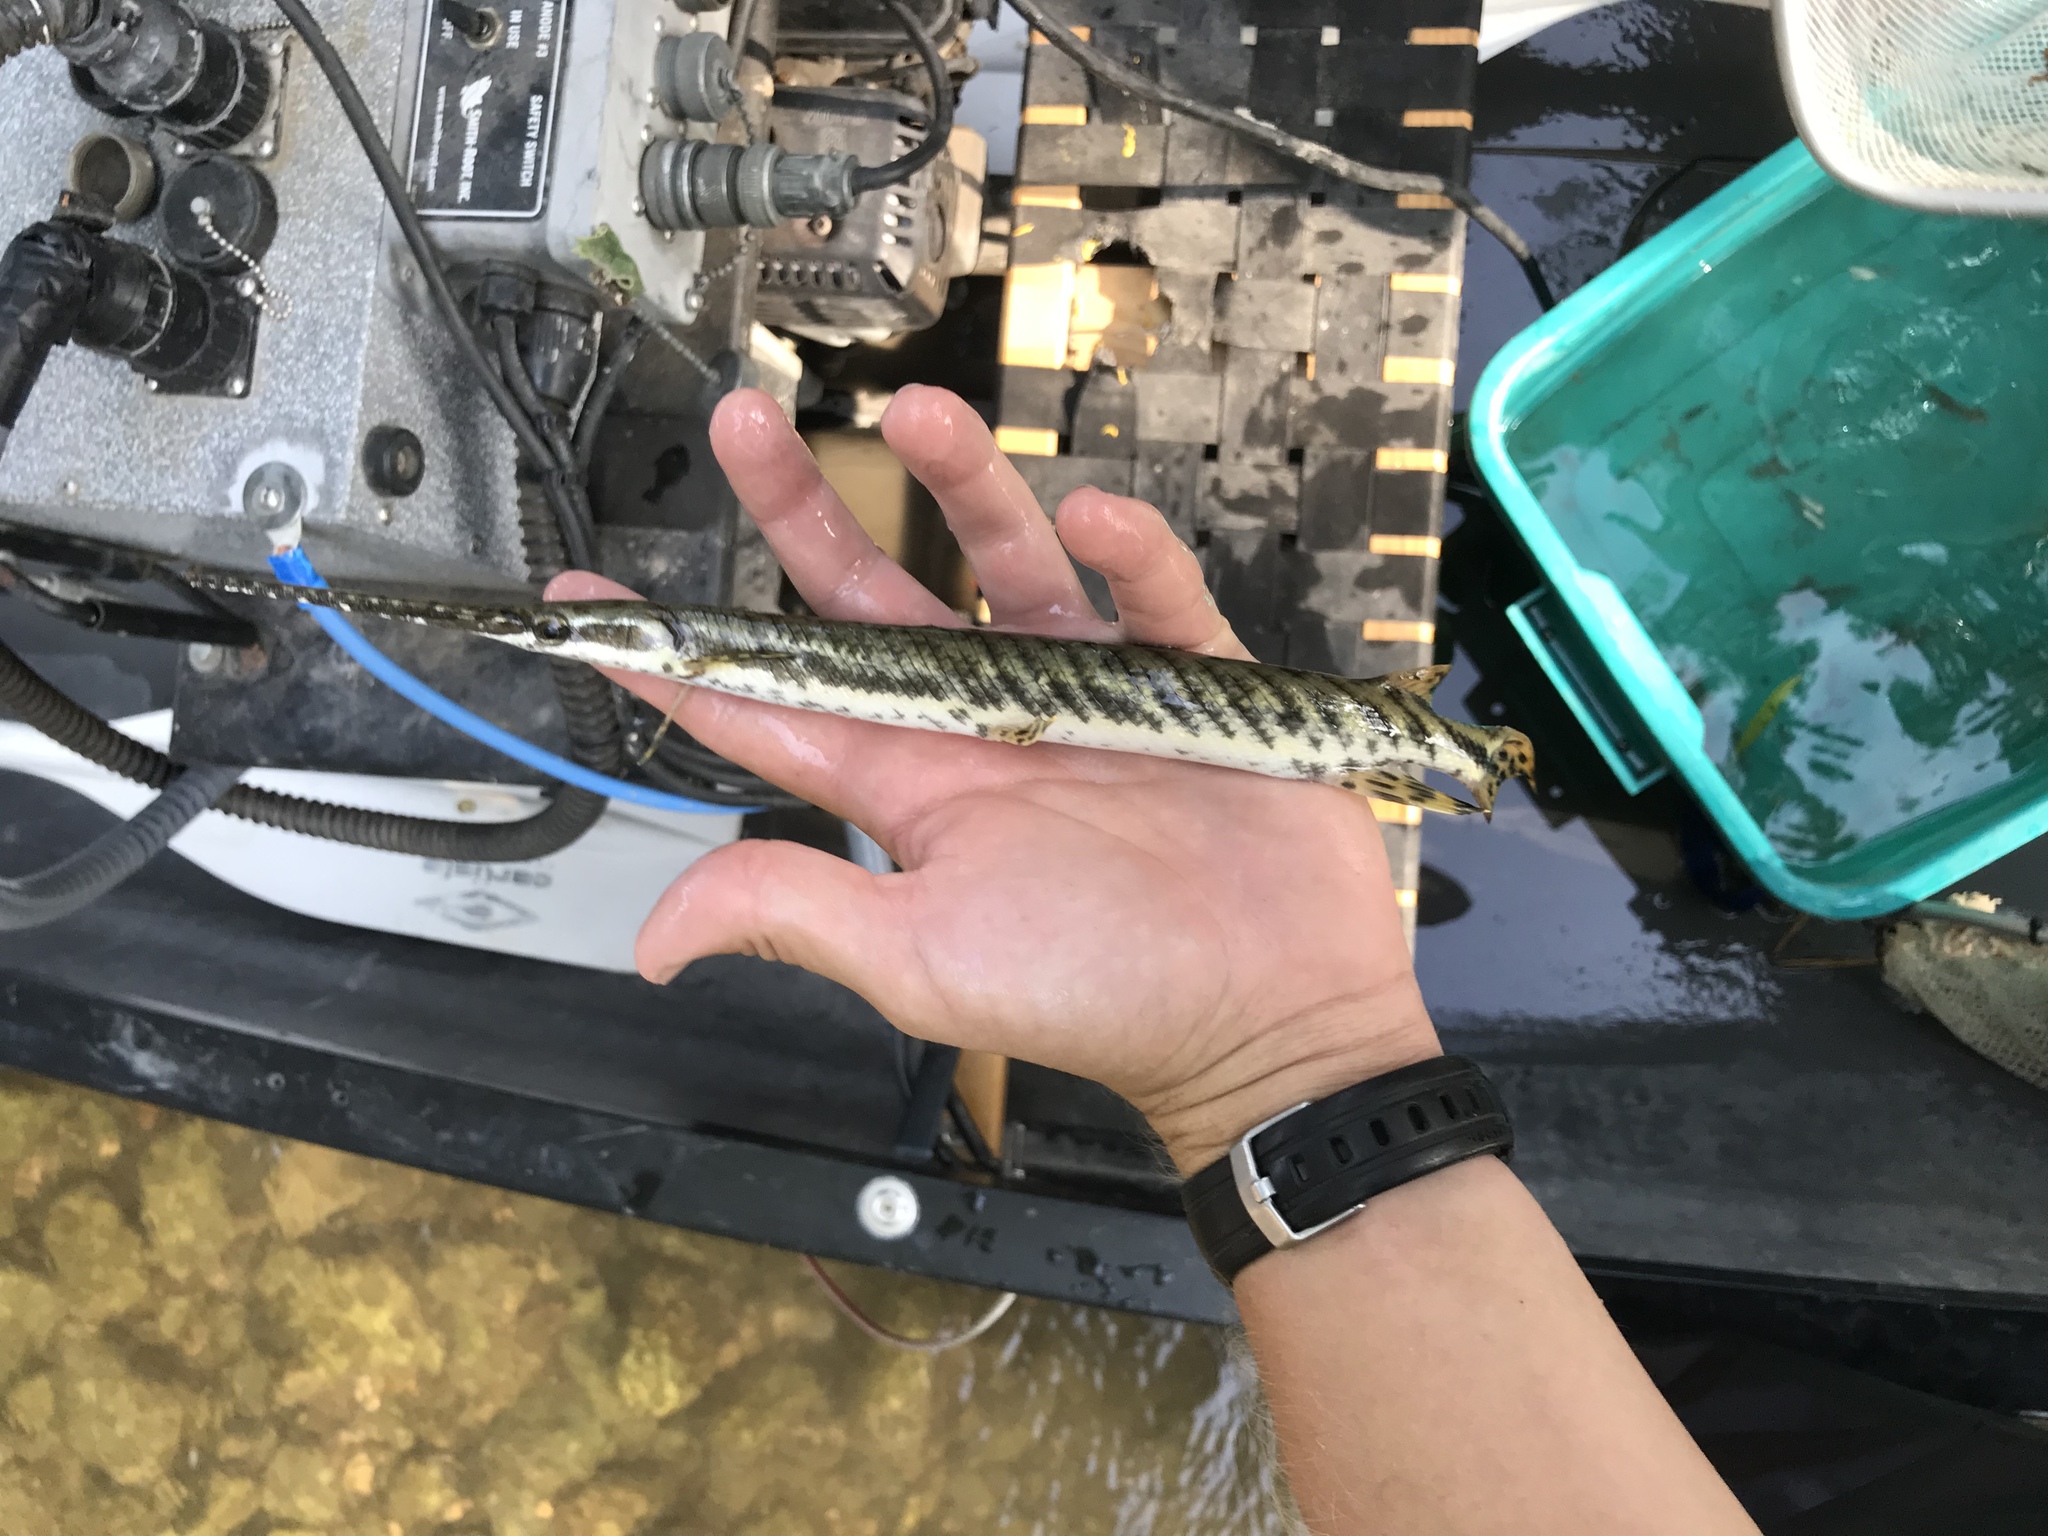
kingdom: Animalia
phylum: Chordata
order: Lepisosteiformes
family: Lepisosteidae
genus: Lepisosteus
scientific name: Lepisosteus osseus
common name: Longnose gar
